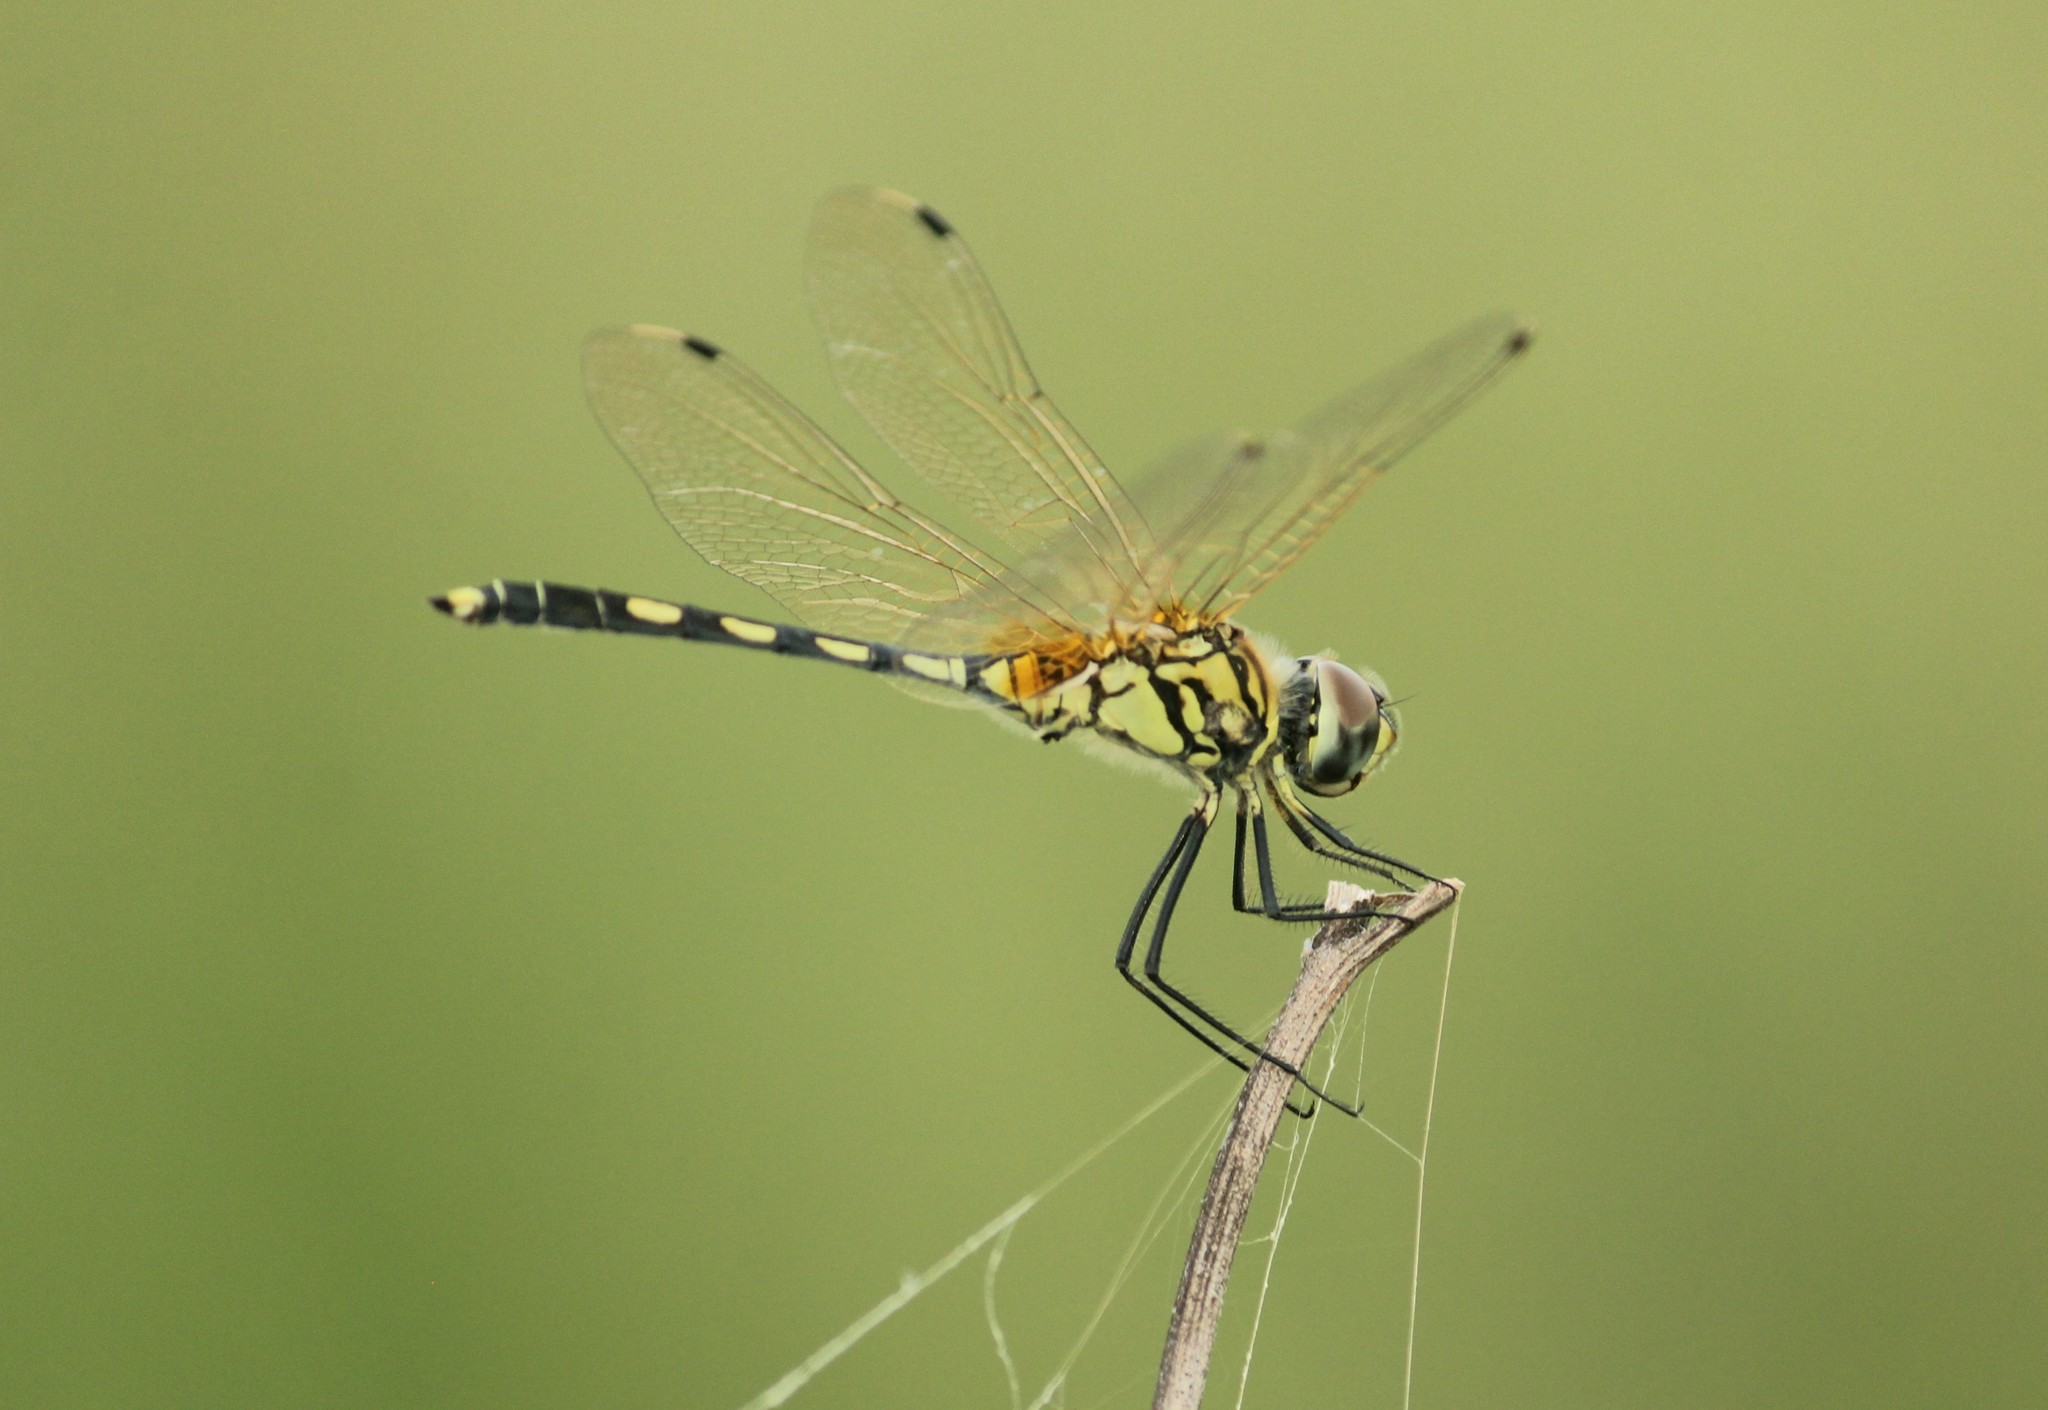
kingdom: Animalia
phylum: Arthropoda
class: Insecta
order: Odonata
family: Libellulidae
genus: Trithemis
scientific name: Trithemis pallidinervis
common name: Dancing dropwing
